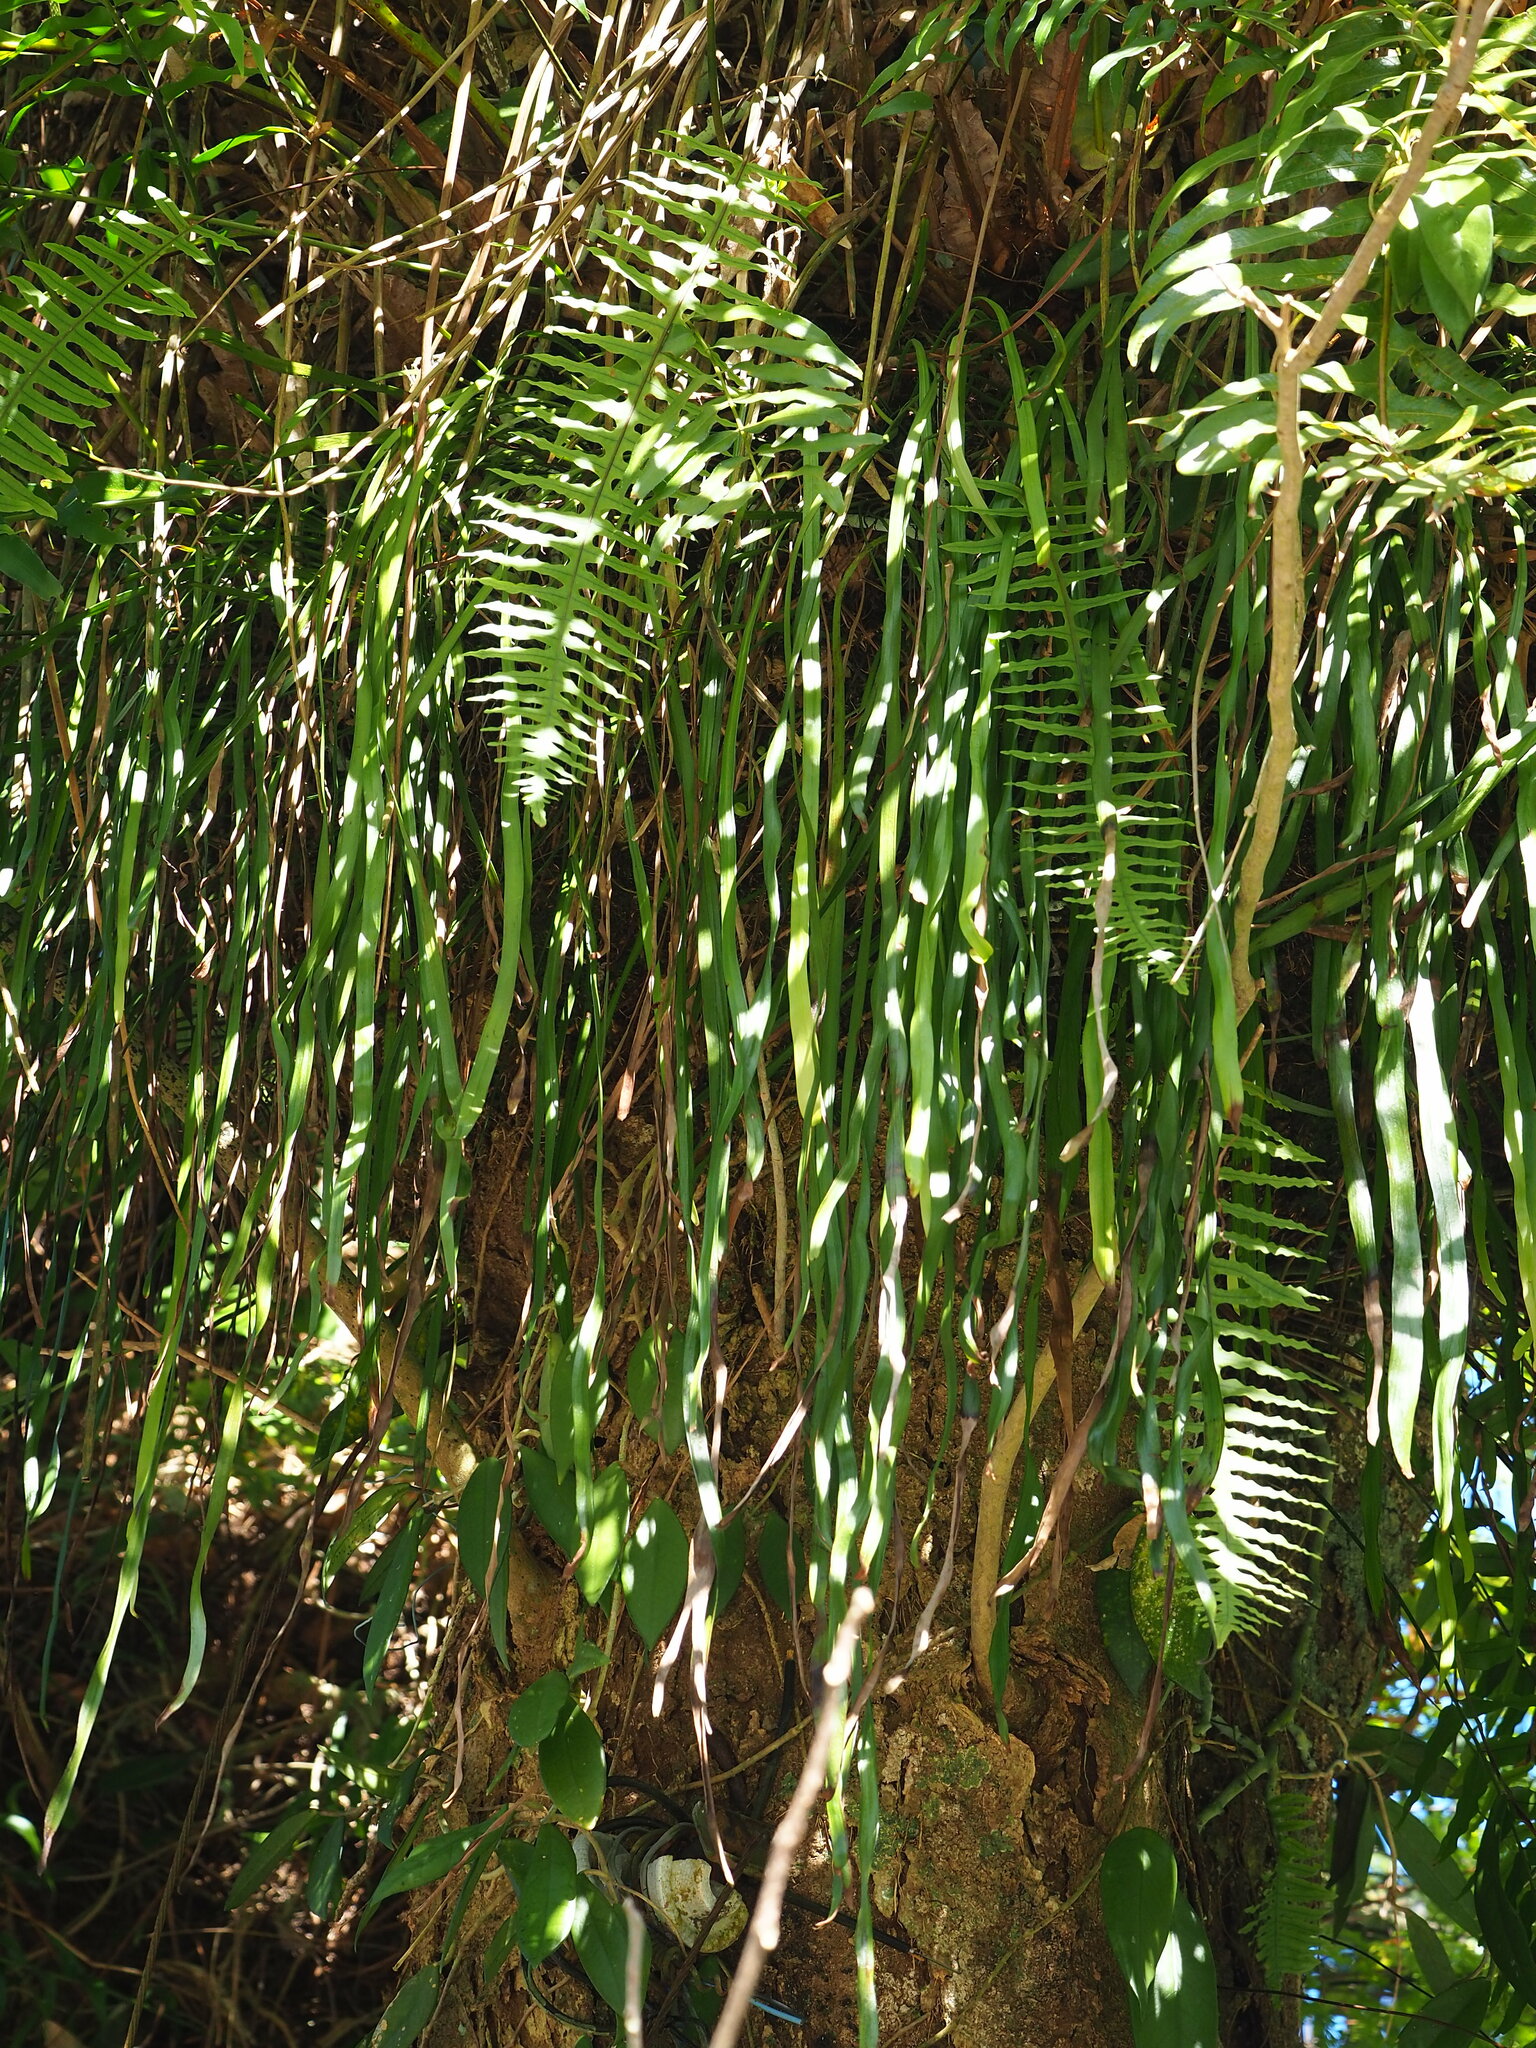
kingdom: Plantae
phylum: Tracheophyta
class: Polypodiopsida
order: Polypodiales
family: Pteridaceae
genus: Haplopteris
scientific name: Haplopteris elongata
